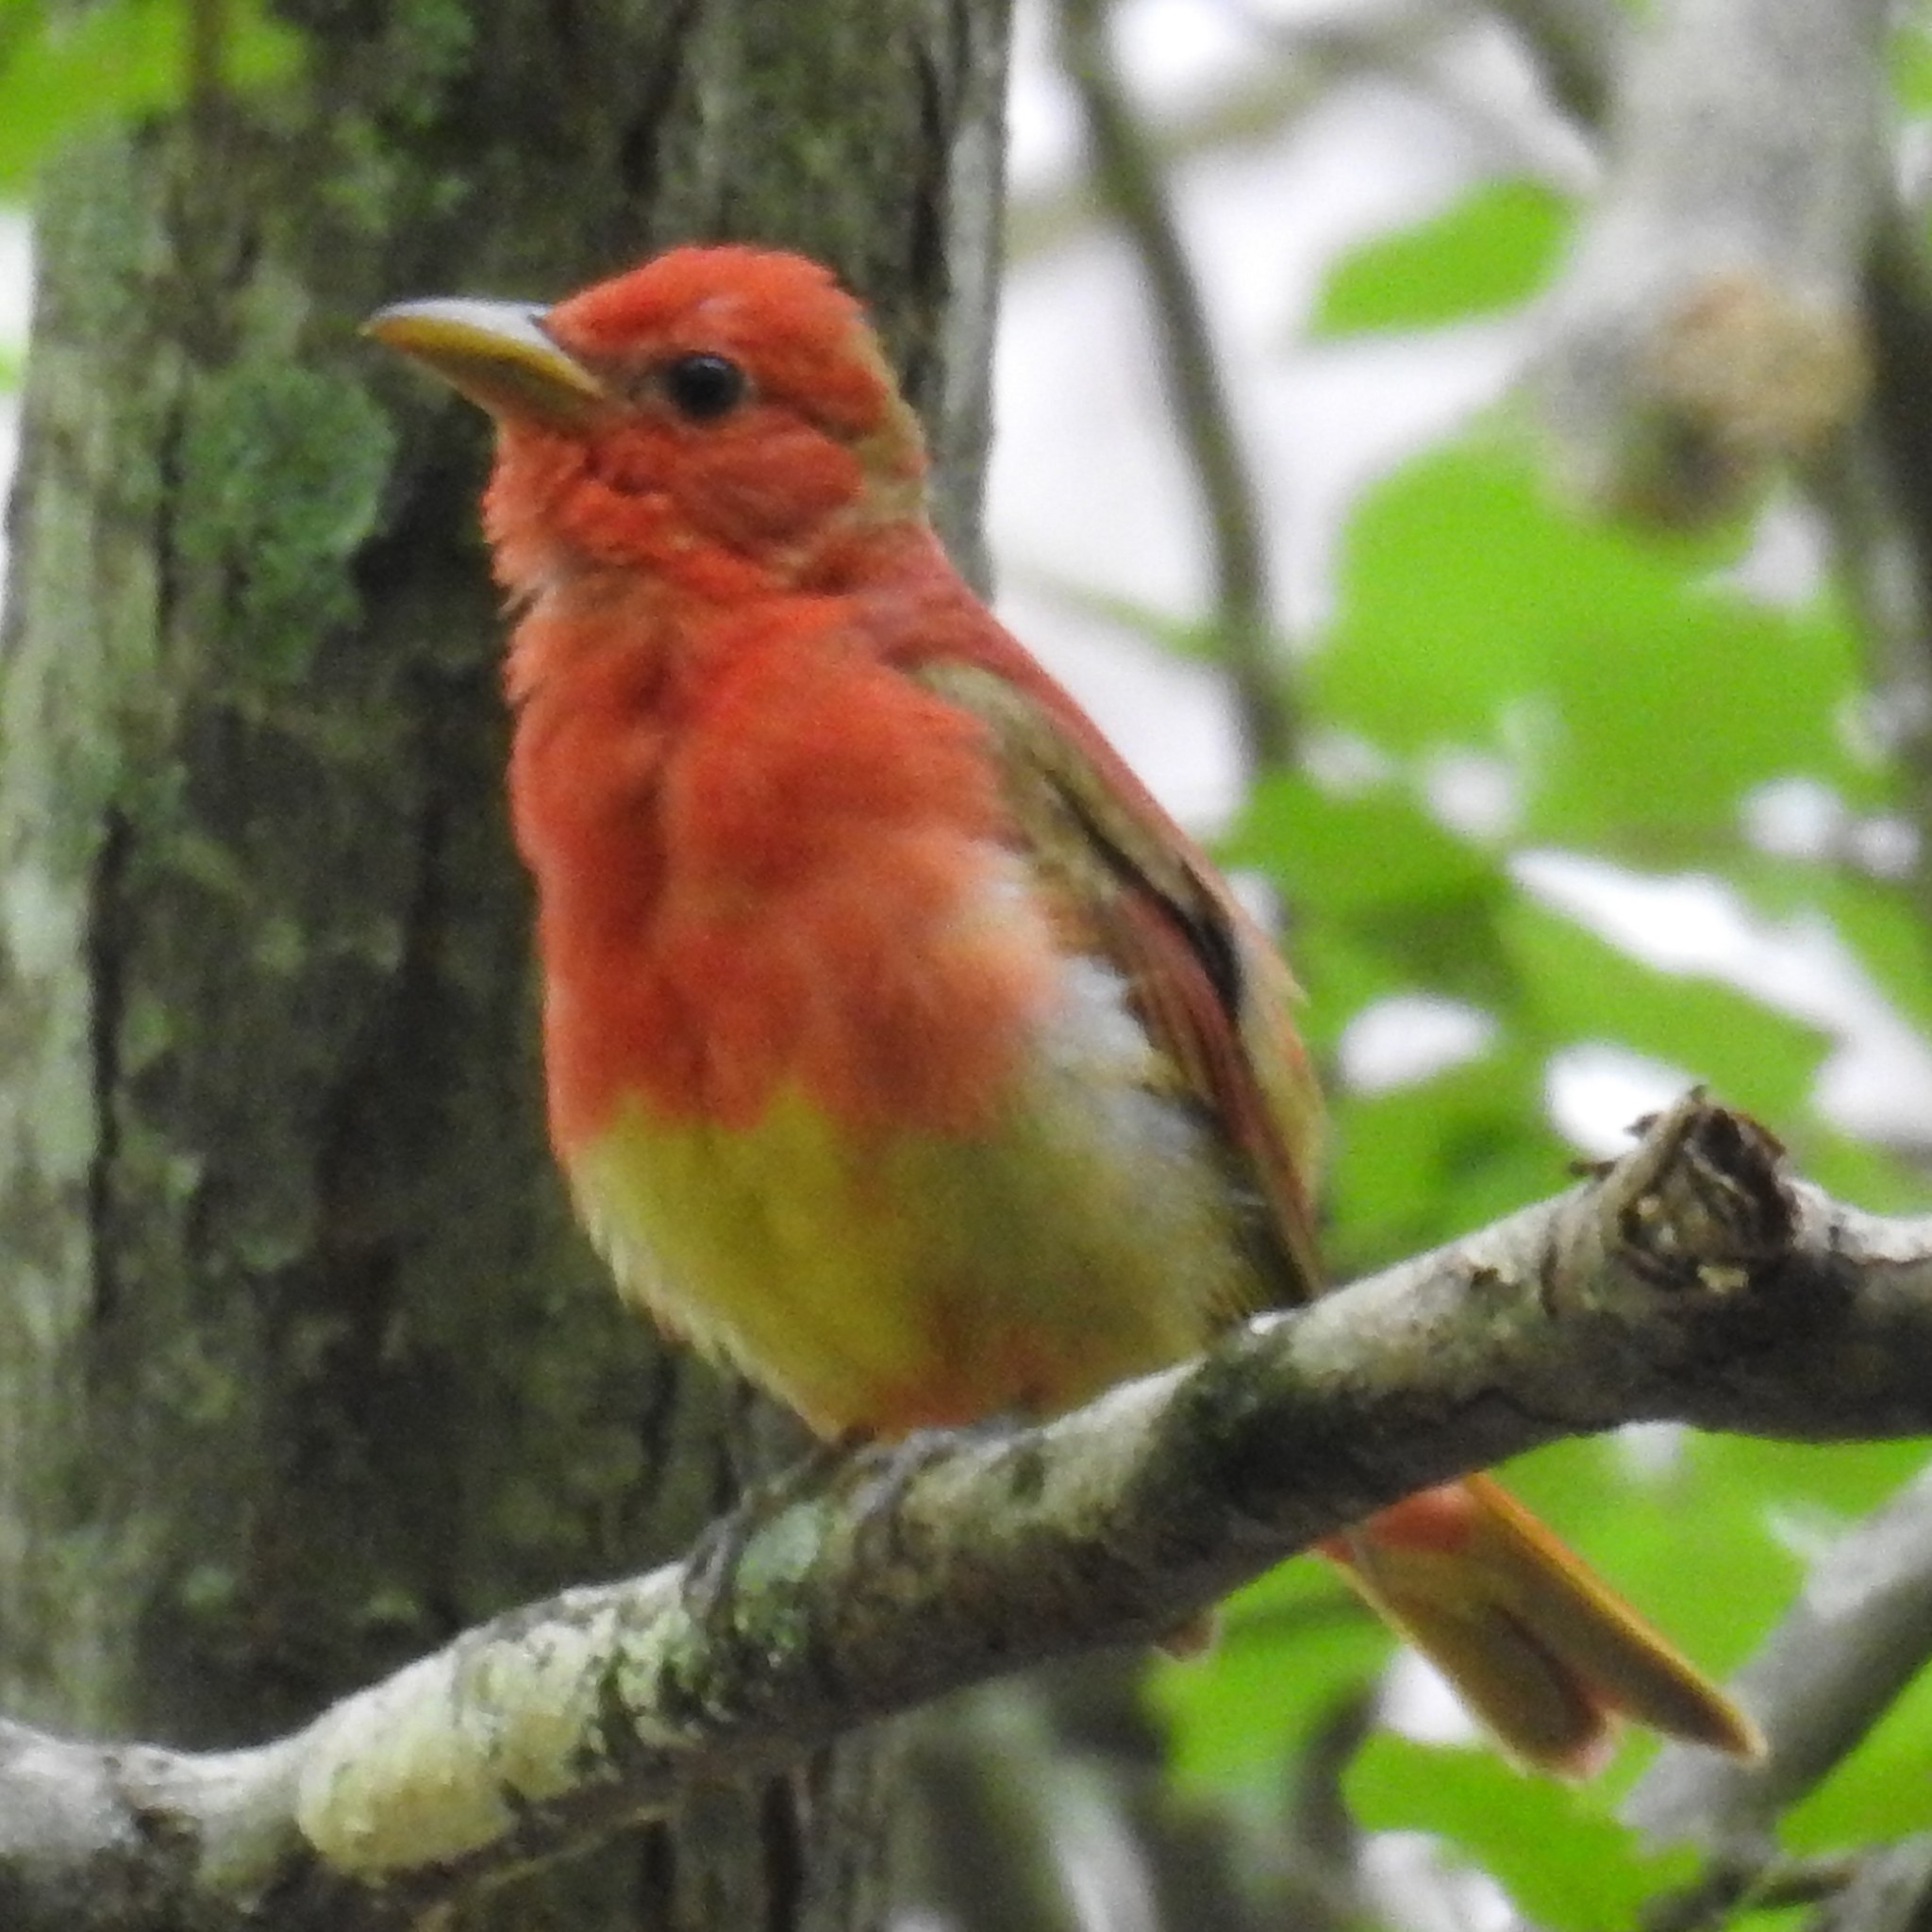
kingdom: Animalia
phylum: Chordata
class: Aves
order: Passeriformes
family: Cardinalidae
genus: Piranga
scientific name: Piranga rubra
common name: Summer tanager
